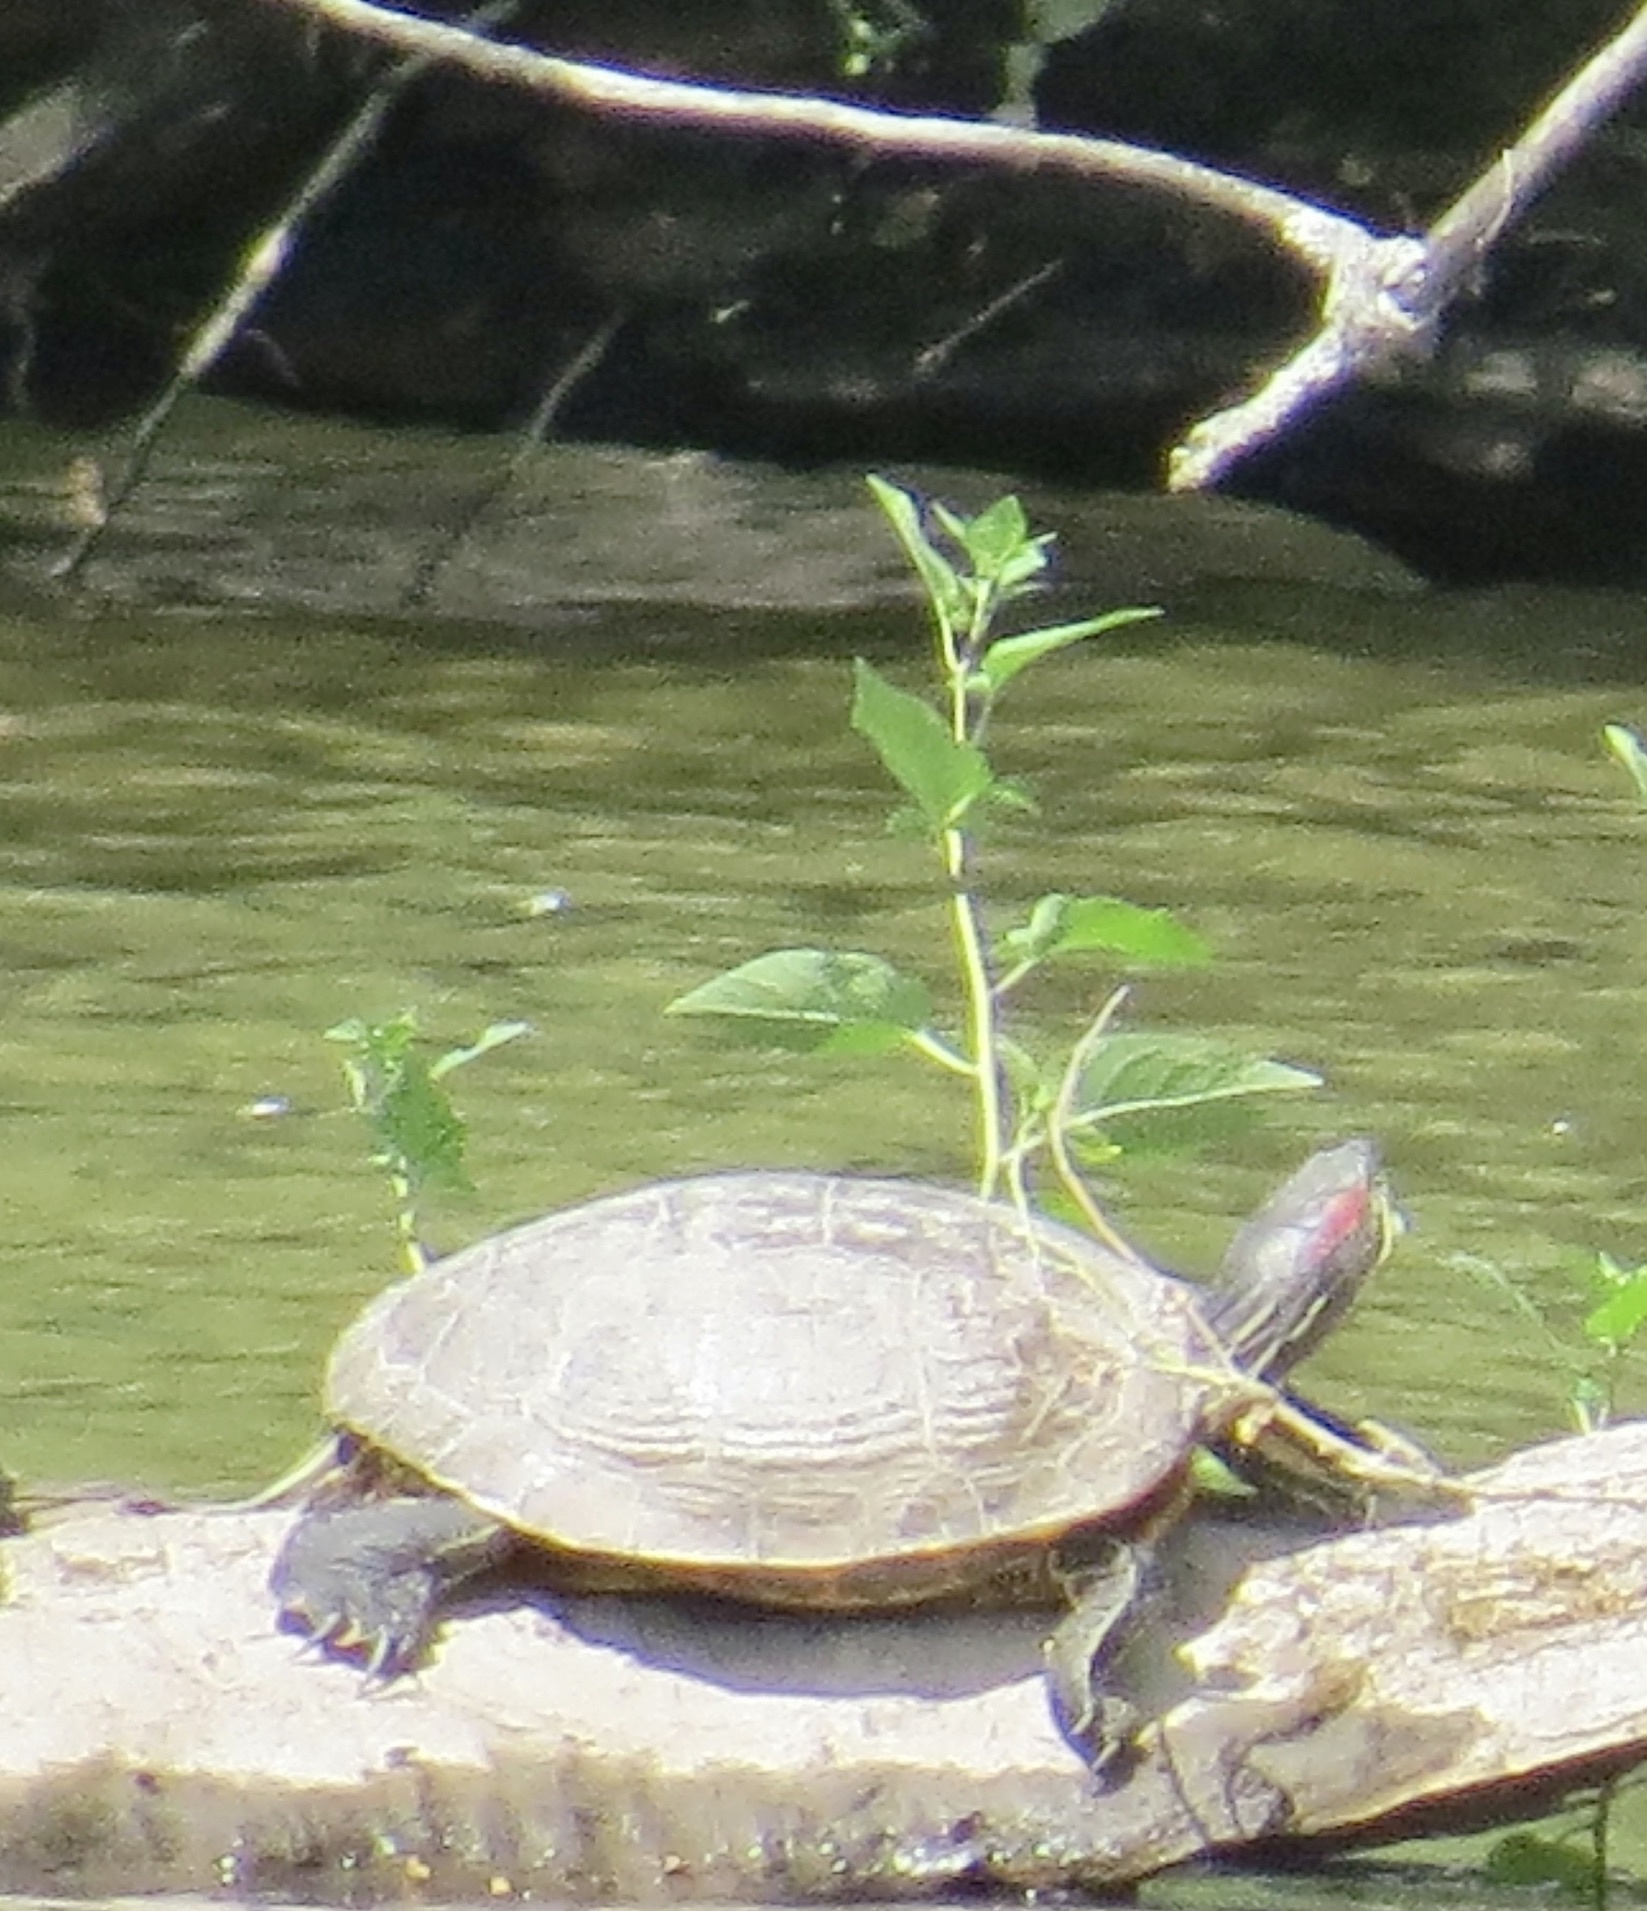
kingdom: Animalia
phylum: Chordata
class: Testudines
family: Emydidae
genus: Trachemys
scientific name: Trachemys scripta
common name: Slider
